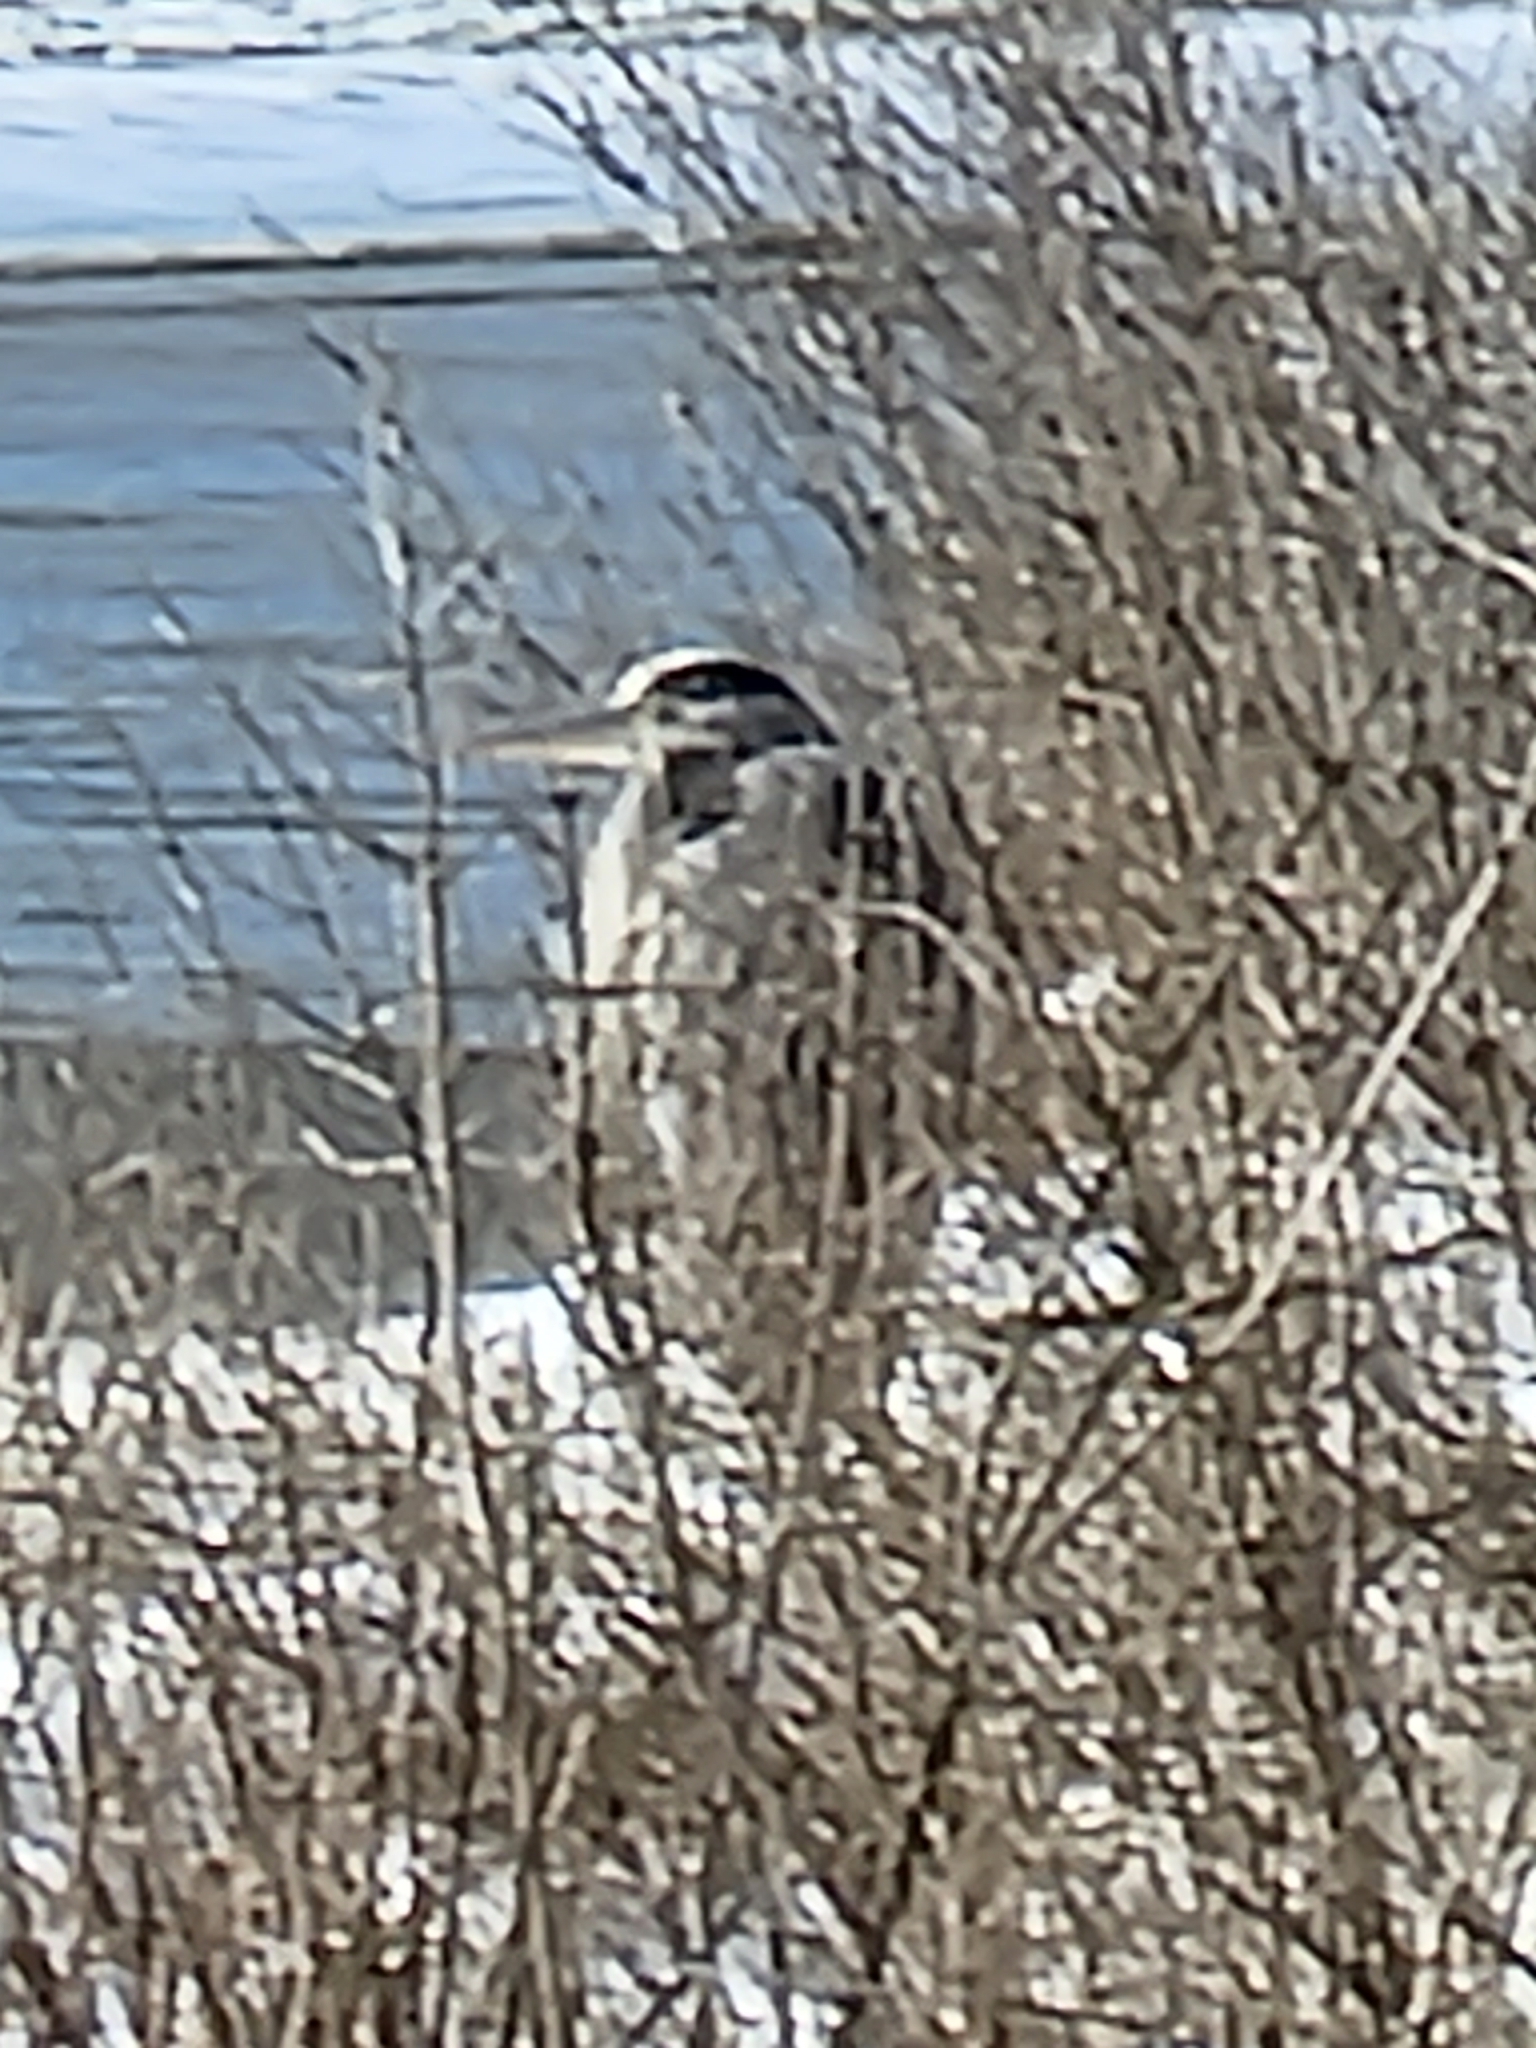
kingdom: Animalia
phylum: Chordata
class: Aves
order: Pelecaniformes
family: Ardeidae
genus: Ardea
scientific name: Ardea herodias
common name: Great blue heron
